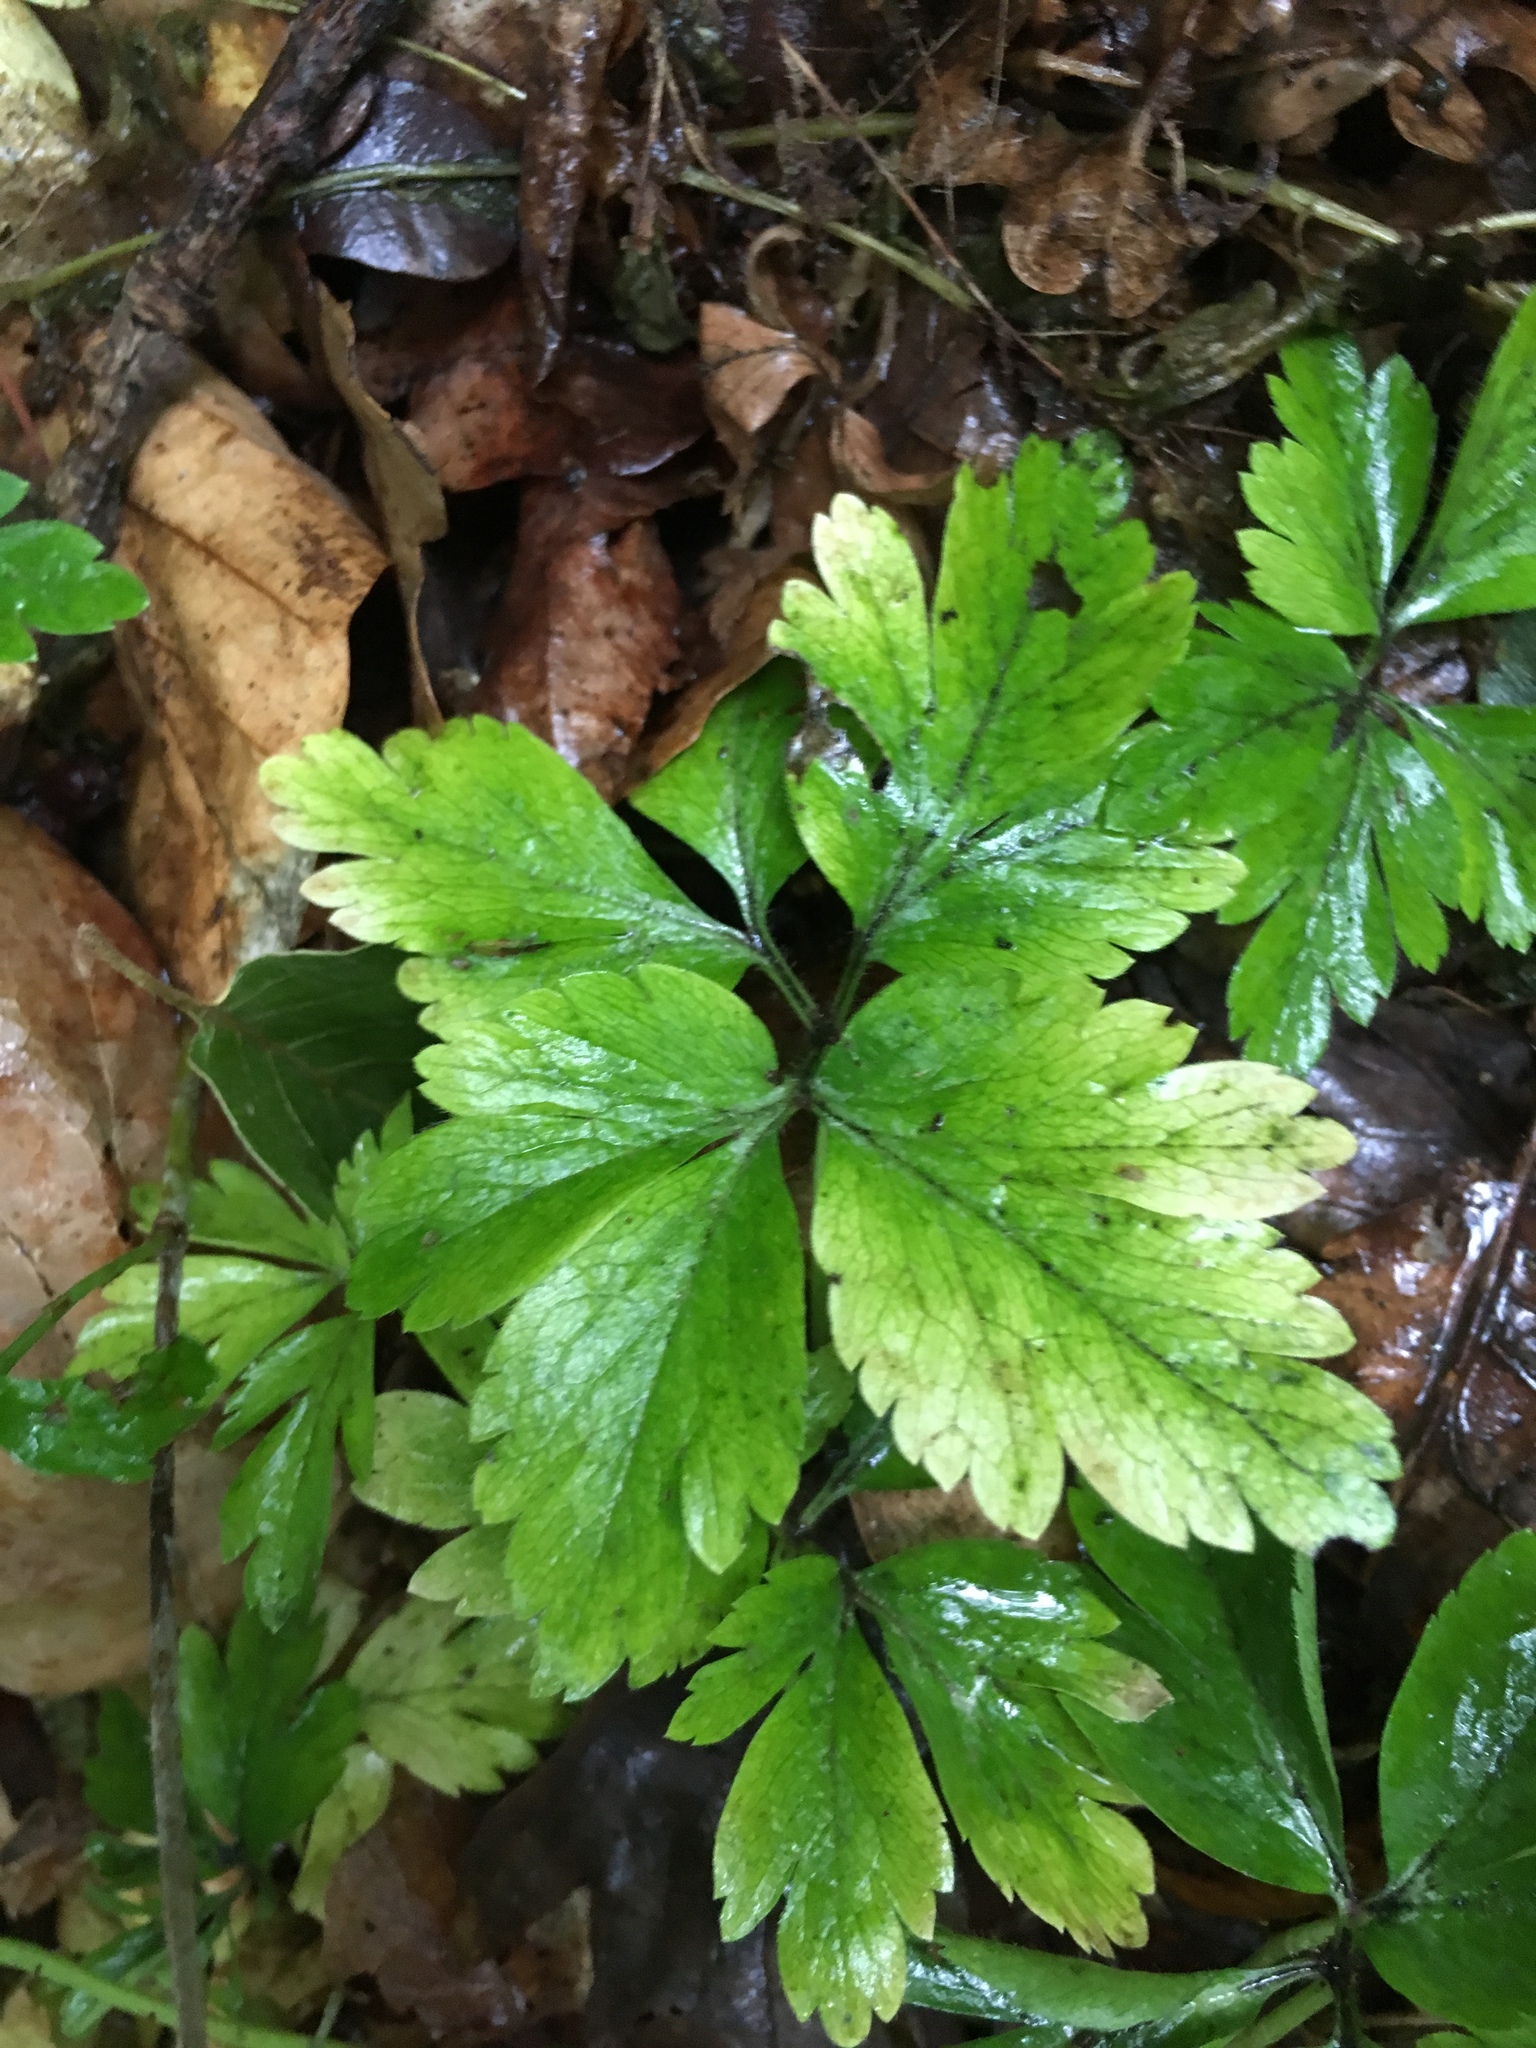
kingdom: Plantae
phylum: Tracheophyta
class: Magnoliopsida
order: Ranunculales
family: Ranunculaceae
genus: Anemone
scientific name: Anemone nemorosa
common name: Wood anemone
